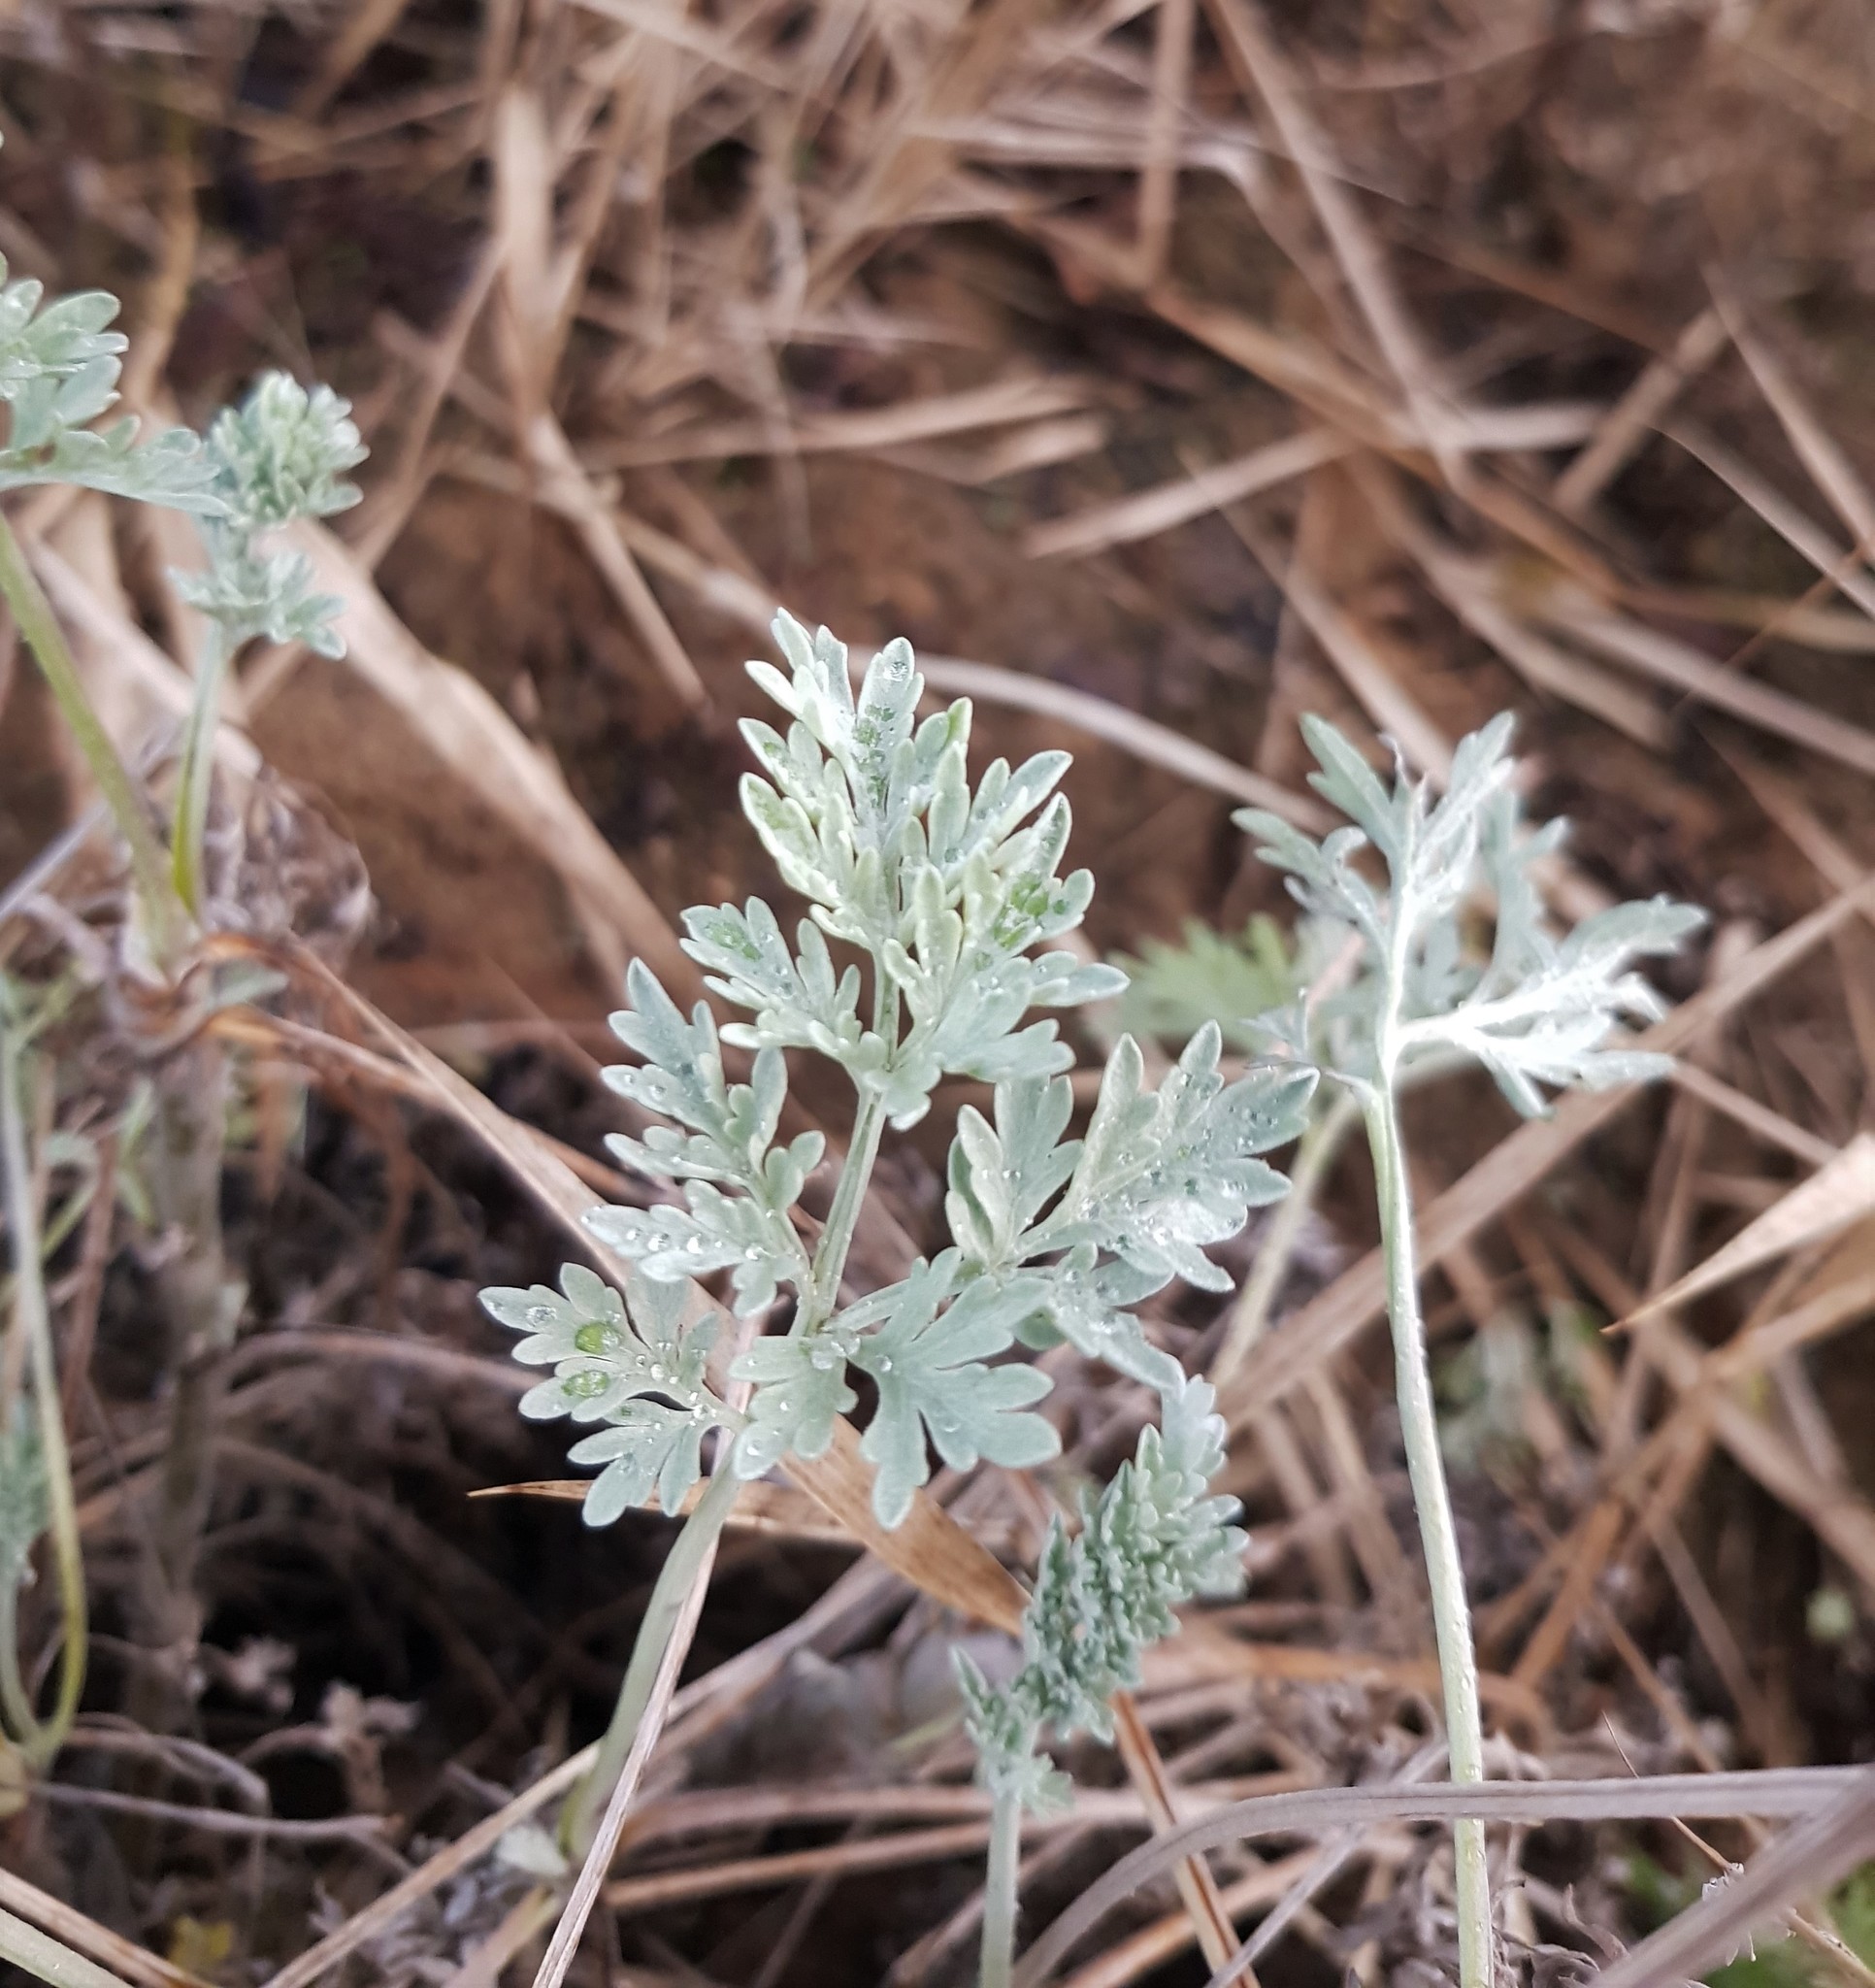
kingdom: Plantae
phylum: Tracheophyta
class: Magnoliopsida
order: Asterales
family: Asteraceae
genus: Artemisia
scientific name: Artemisia absinthium
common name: Wormwood
